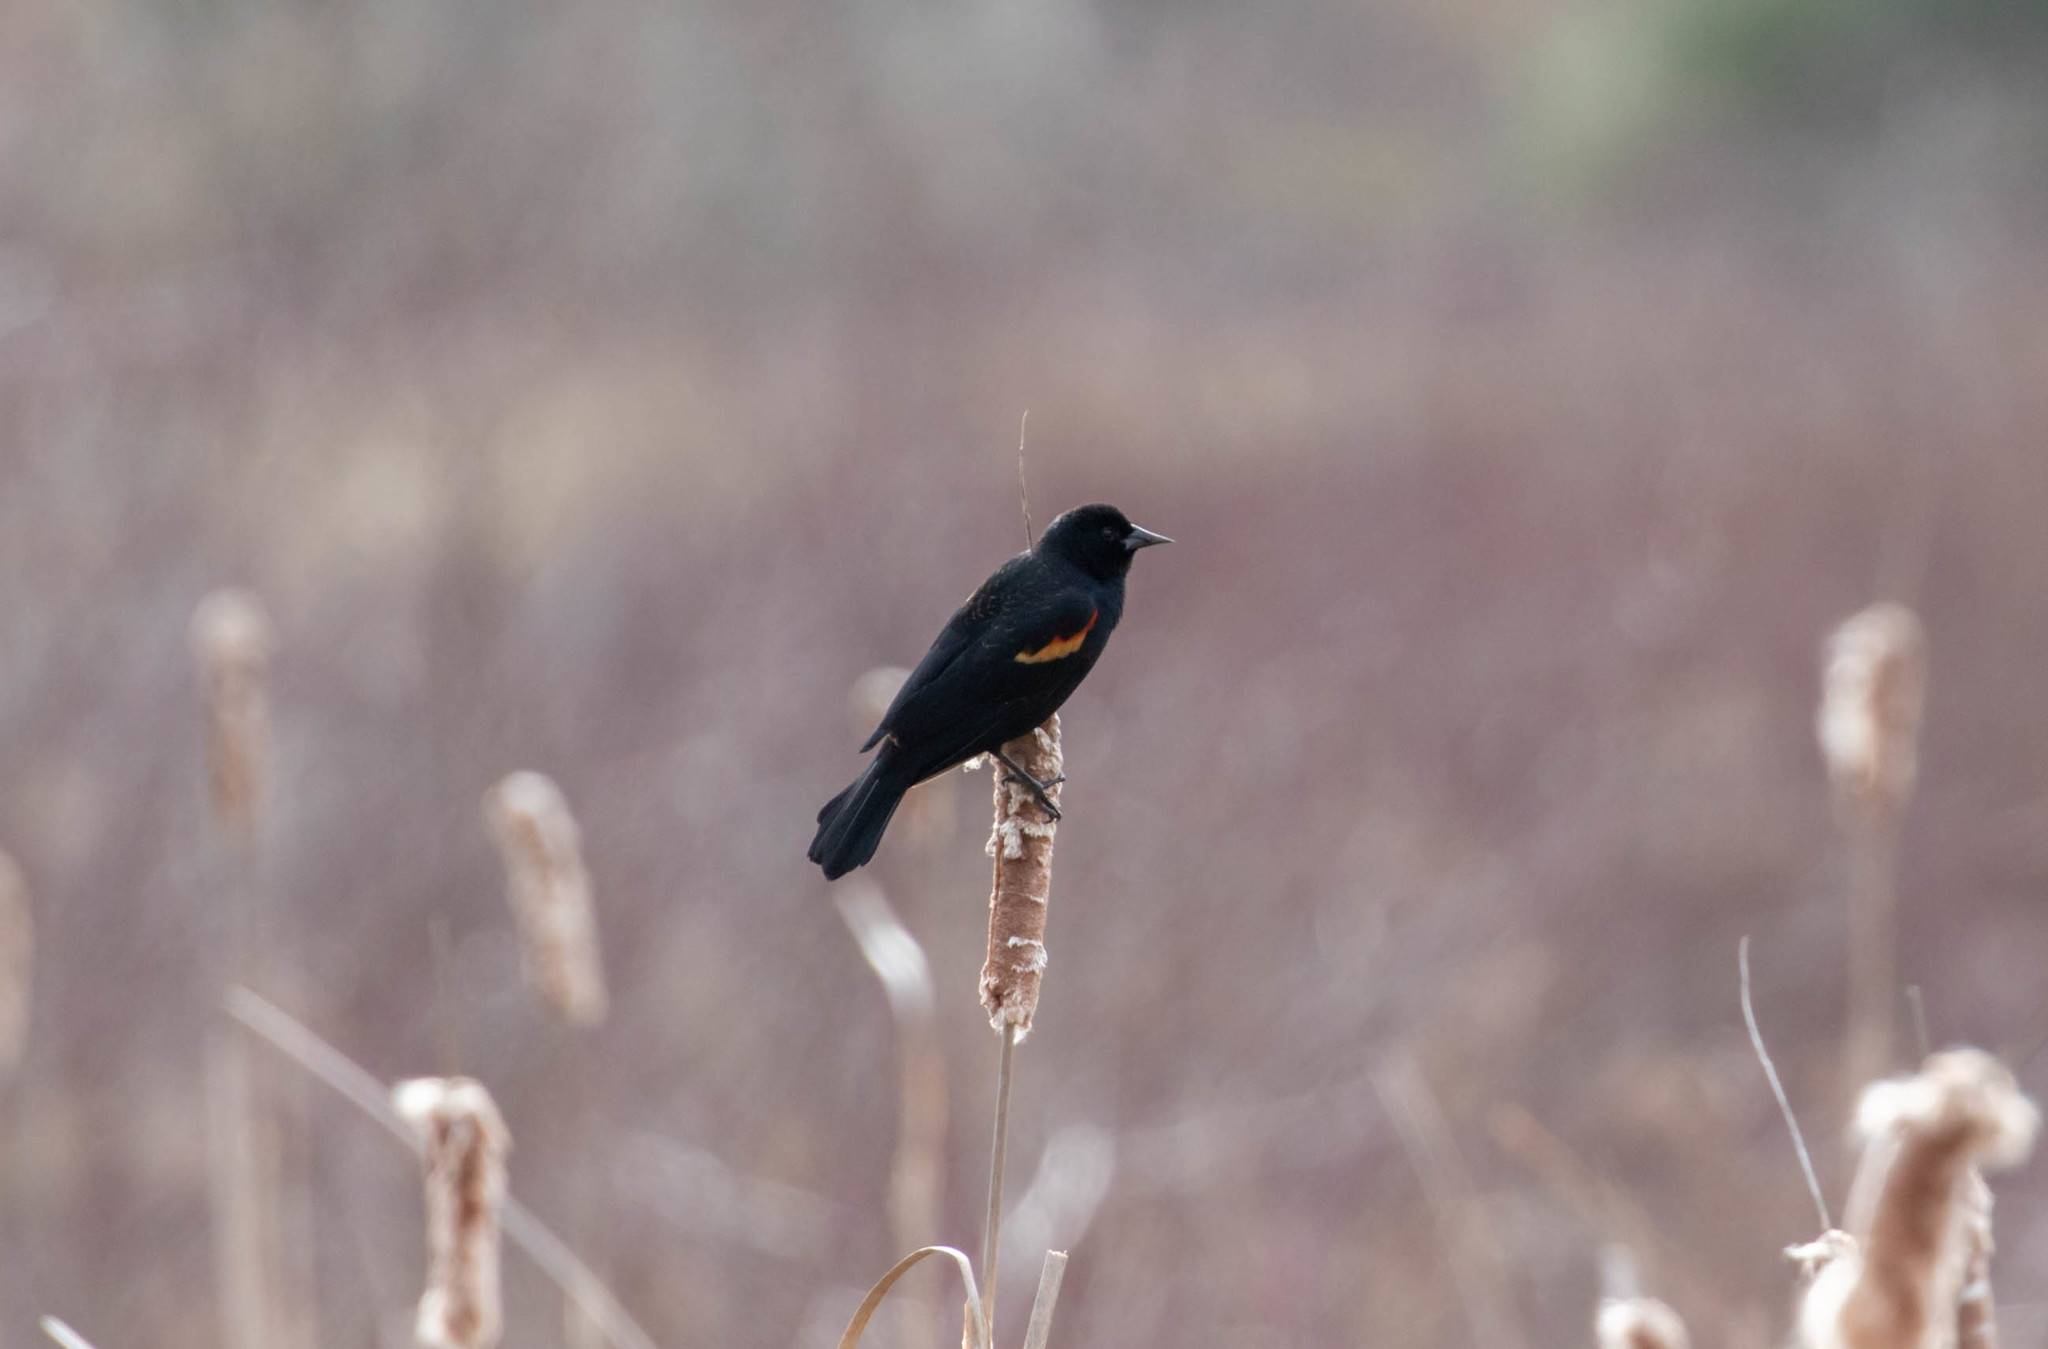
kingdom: Animalia
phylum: Chordata
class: Aves
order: Passeriformes
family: Icteridae
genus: Agelaius
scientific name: Agelaius phoeniceus
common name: Red-winged blackbird
